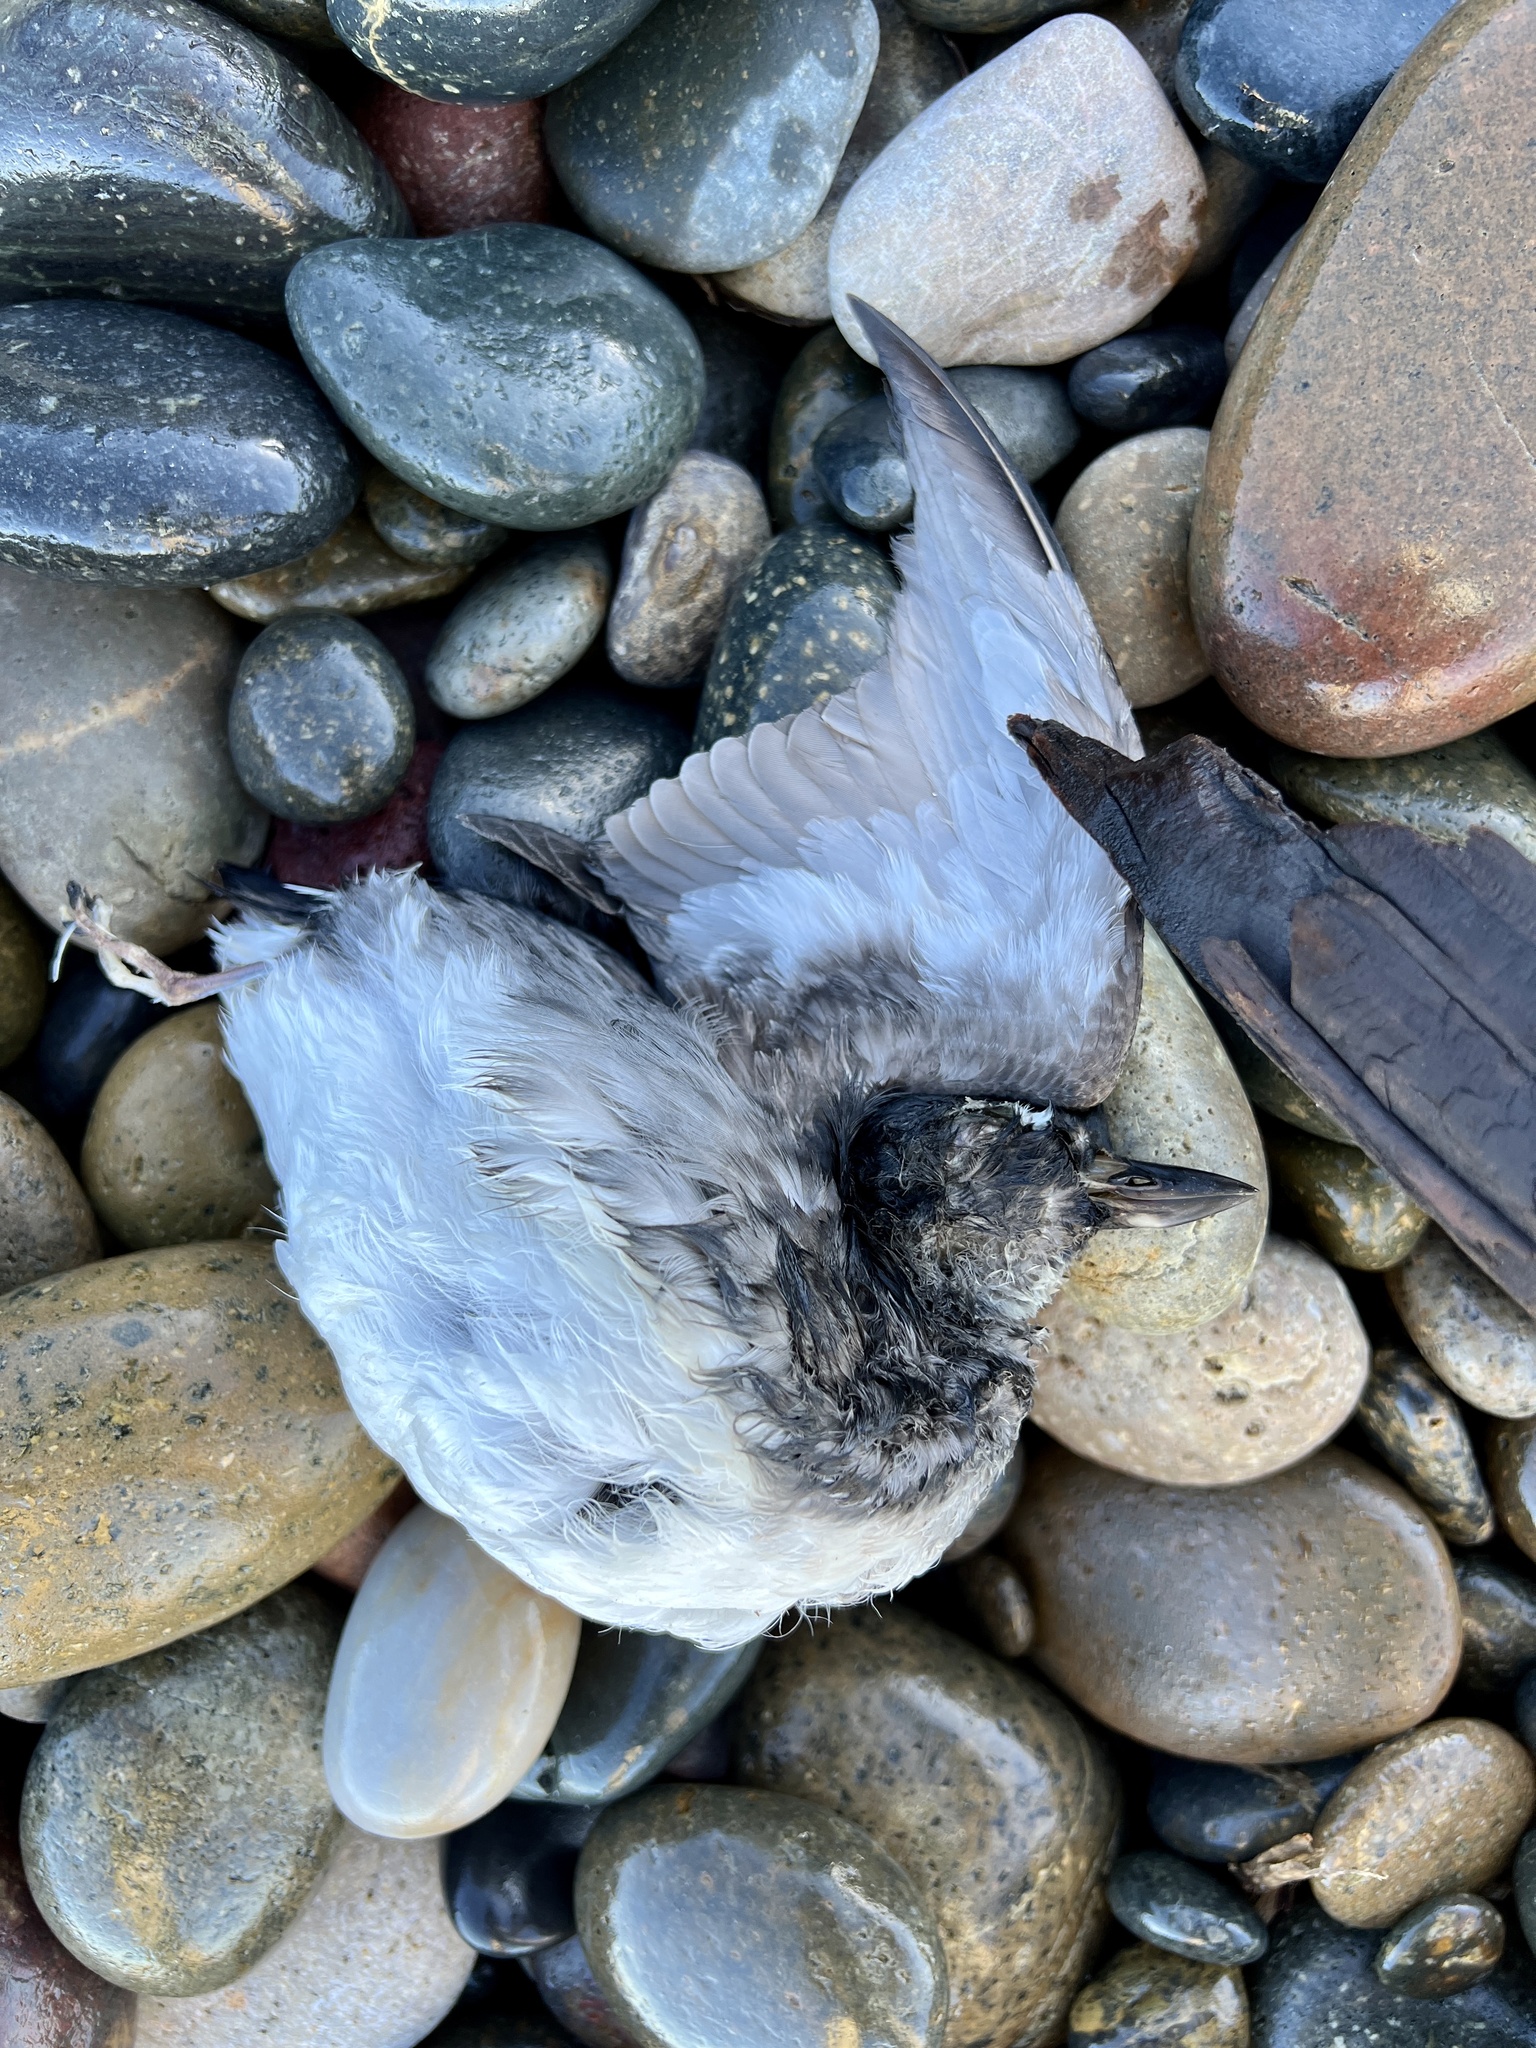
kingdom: Animalia
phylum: Chordata
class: Aves
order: Charadriiformes
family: Alcidae
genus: Ptychoramphus
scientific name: Ptychoramphus aleuticus
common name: Cassin's auklet
